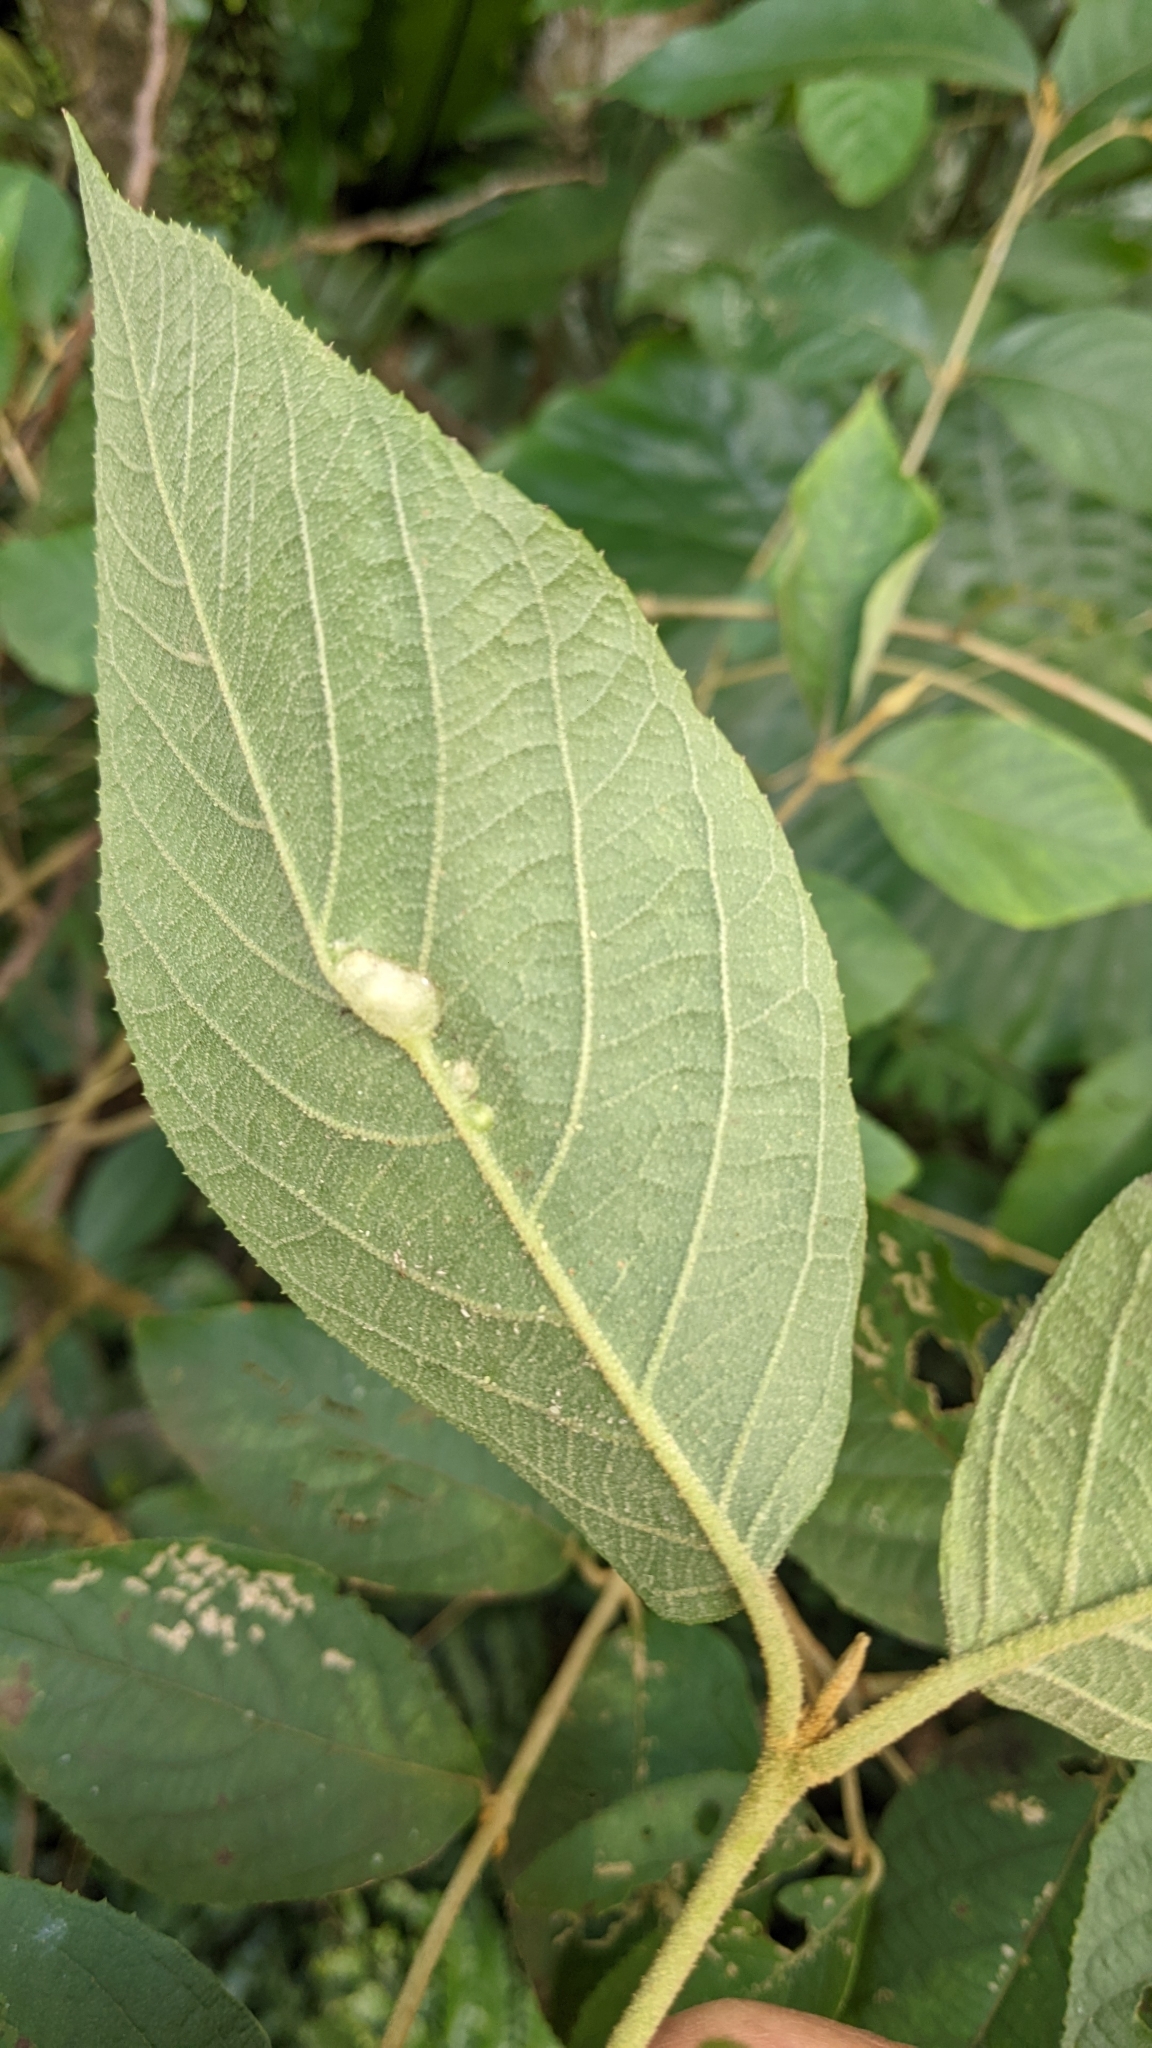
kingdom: Plantae
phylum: Tracheophyta
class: Magnoliopsida
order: Lamiales
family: Lamiaceae
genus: Callicarpa
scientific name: Callicarpa pedunculata
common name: Velvetleaf
